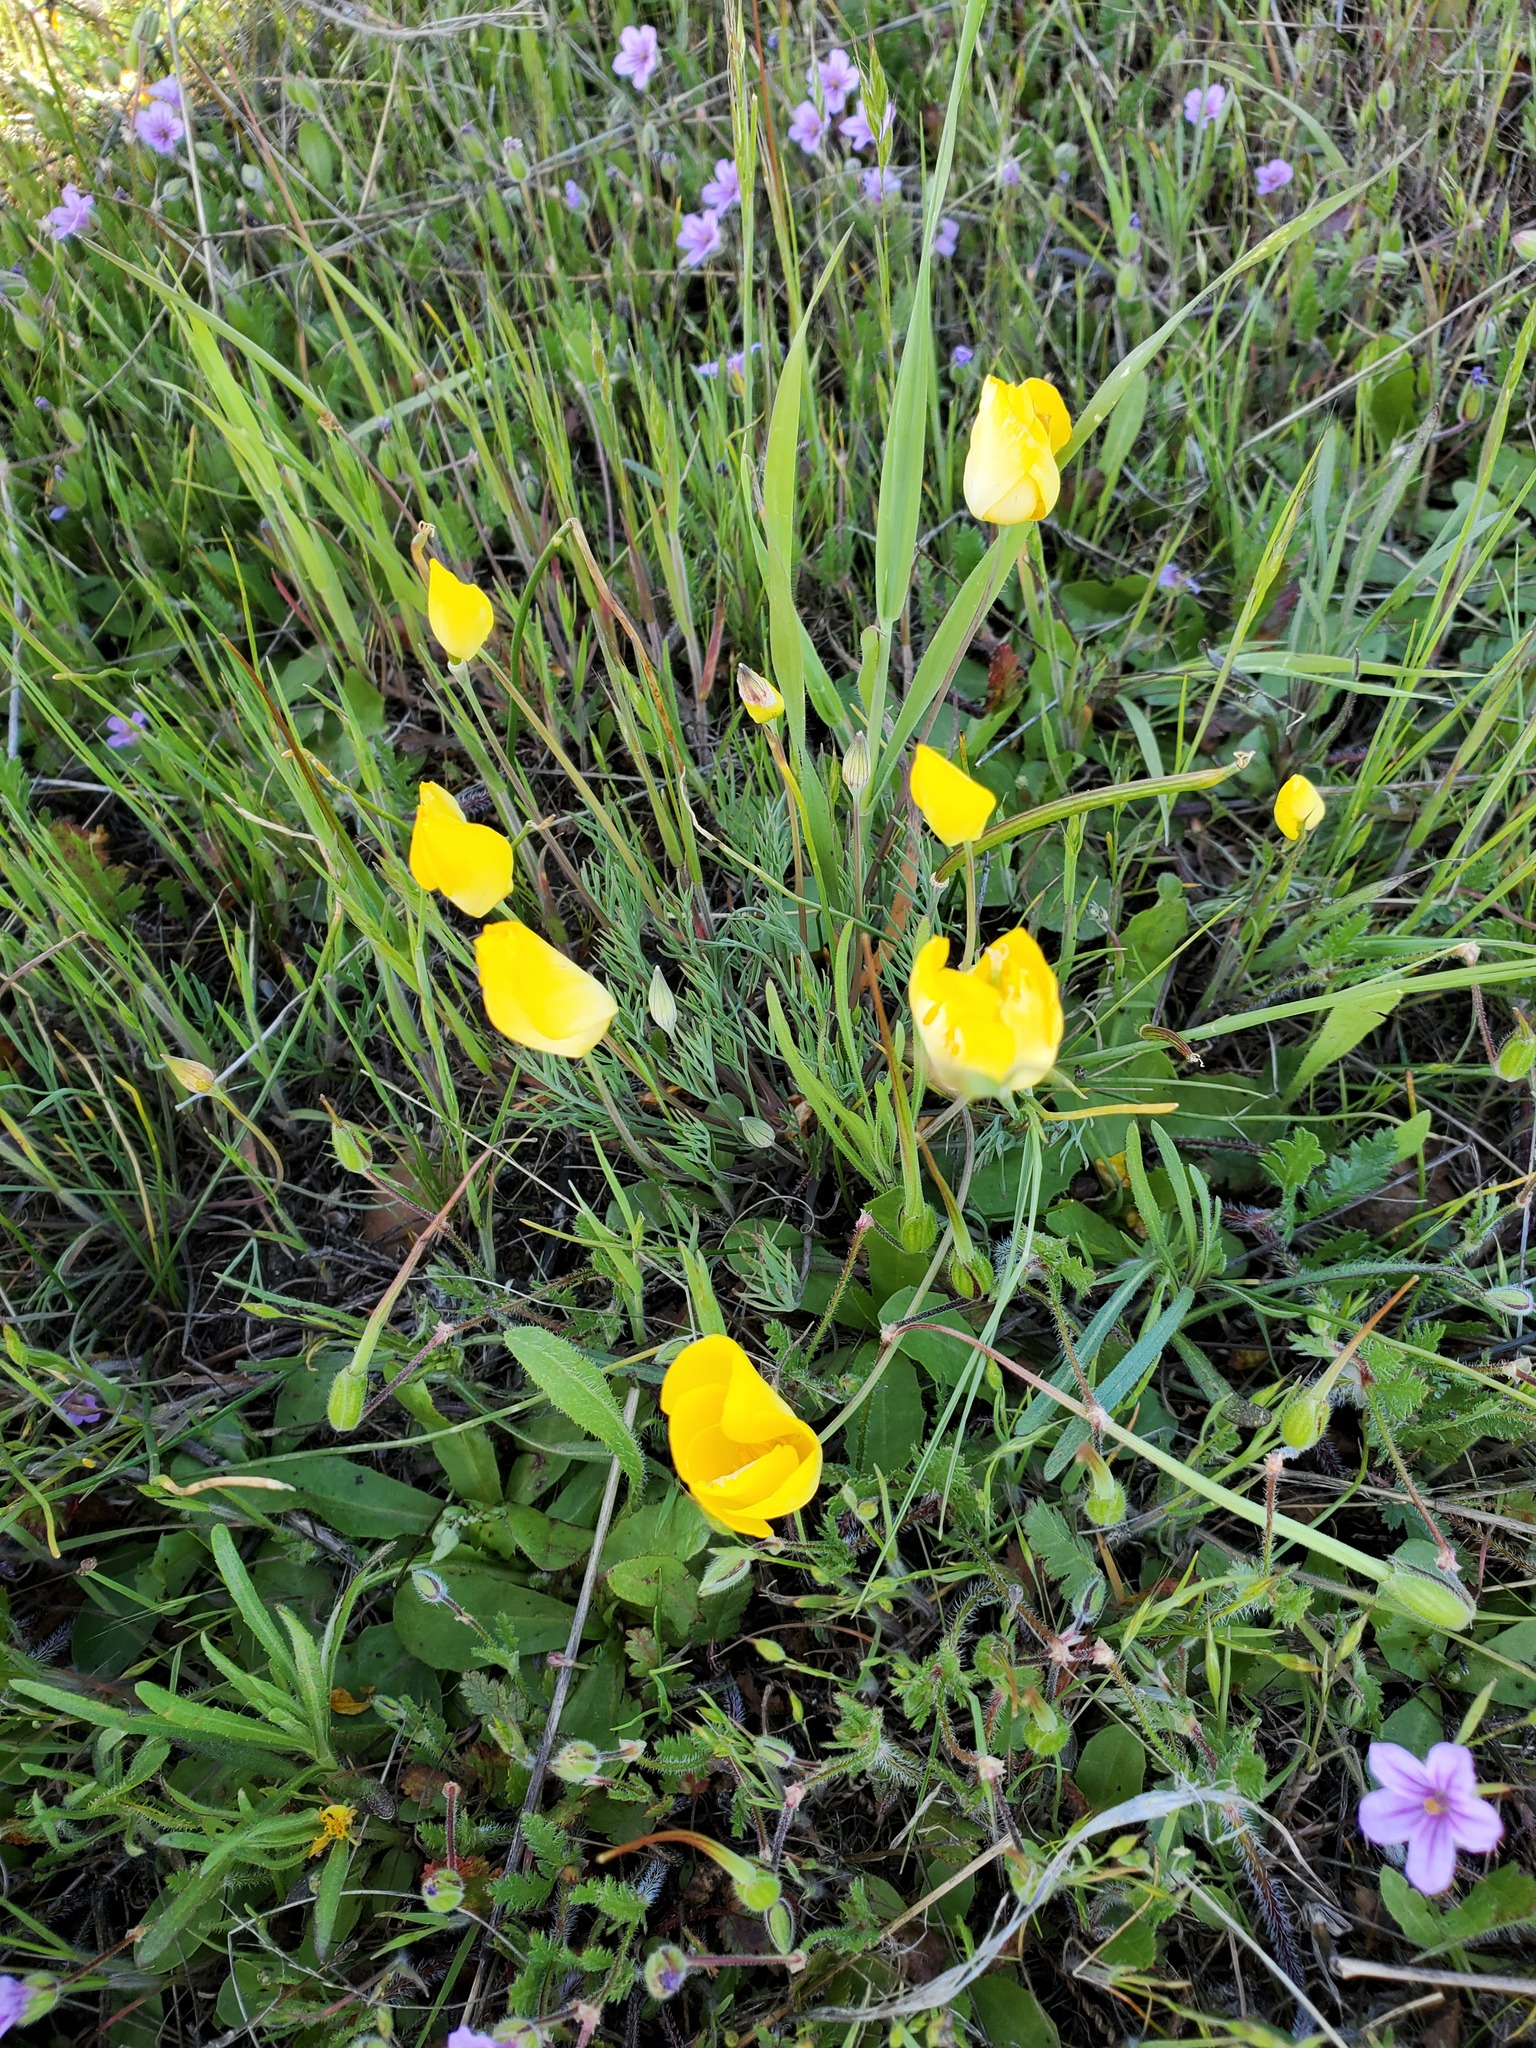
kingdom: Plantae
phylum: Tracheophyta
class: Magnoliopsida
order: Ranunculales
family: Papaveraceae
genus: Eschscholzia
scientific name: Eschscholzia lobbii
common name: Frying-pans
